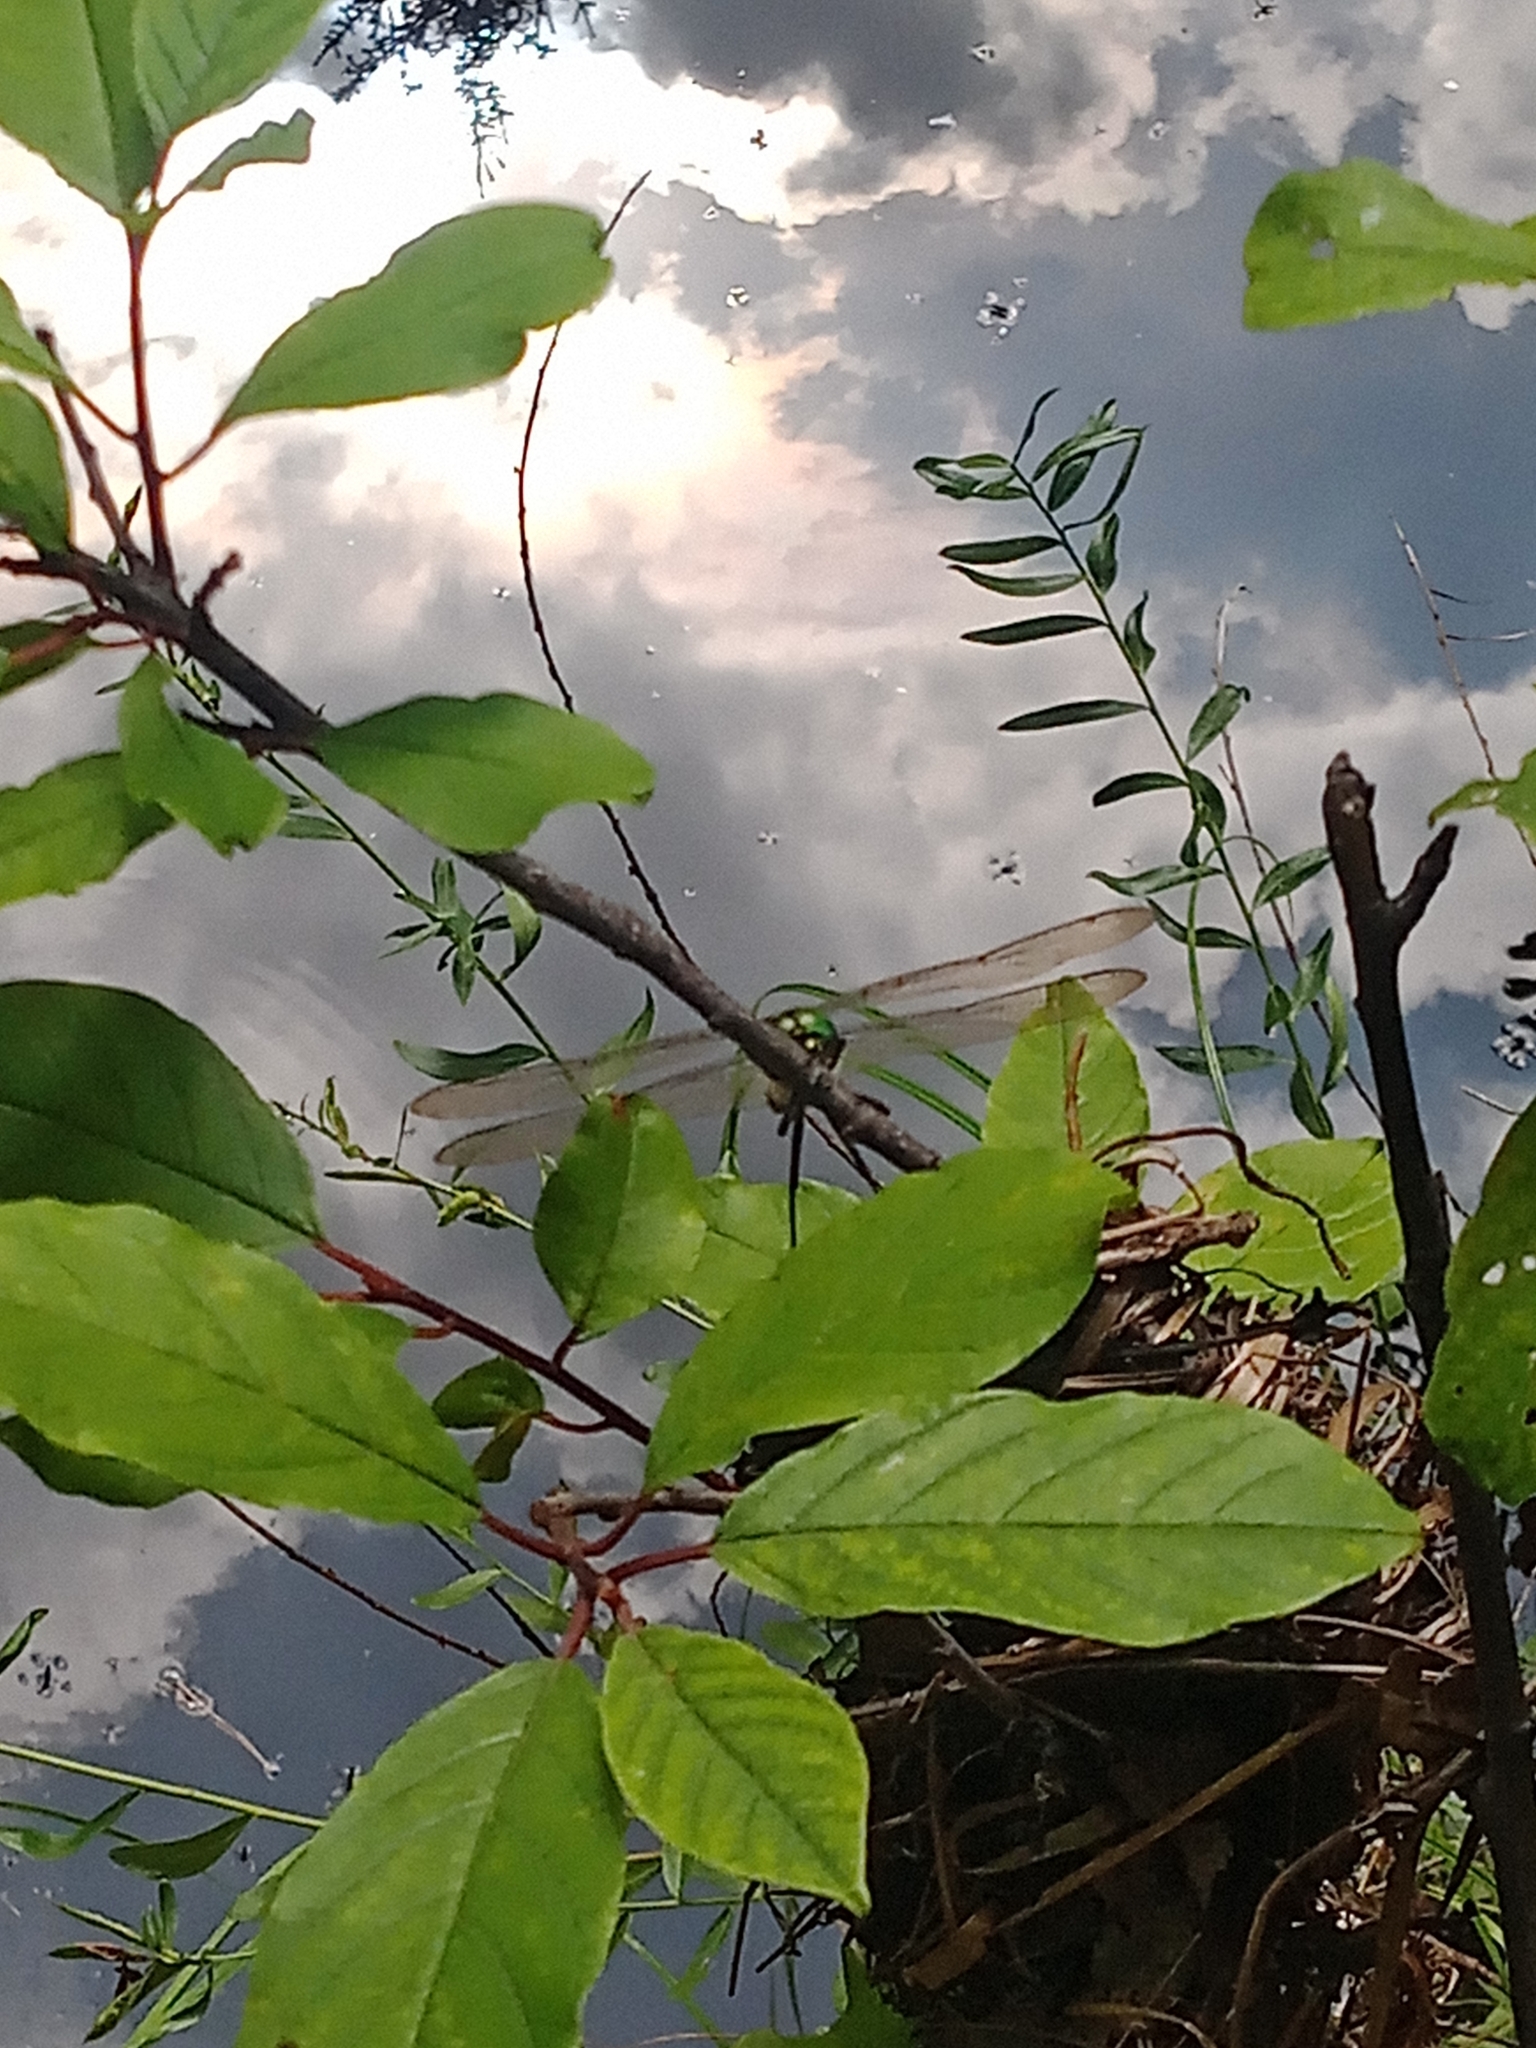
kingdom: Animalia
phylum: Arthropoda
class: Insecta
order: Odonata
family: Corduliidae
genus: Somatochlora
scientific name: Somatochlora metallica
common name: Brilliant emerald
